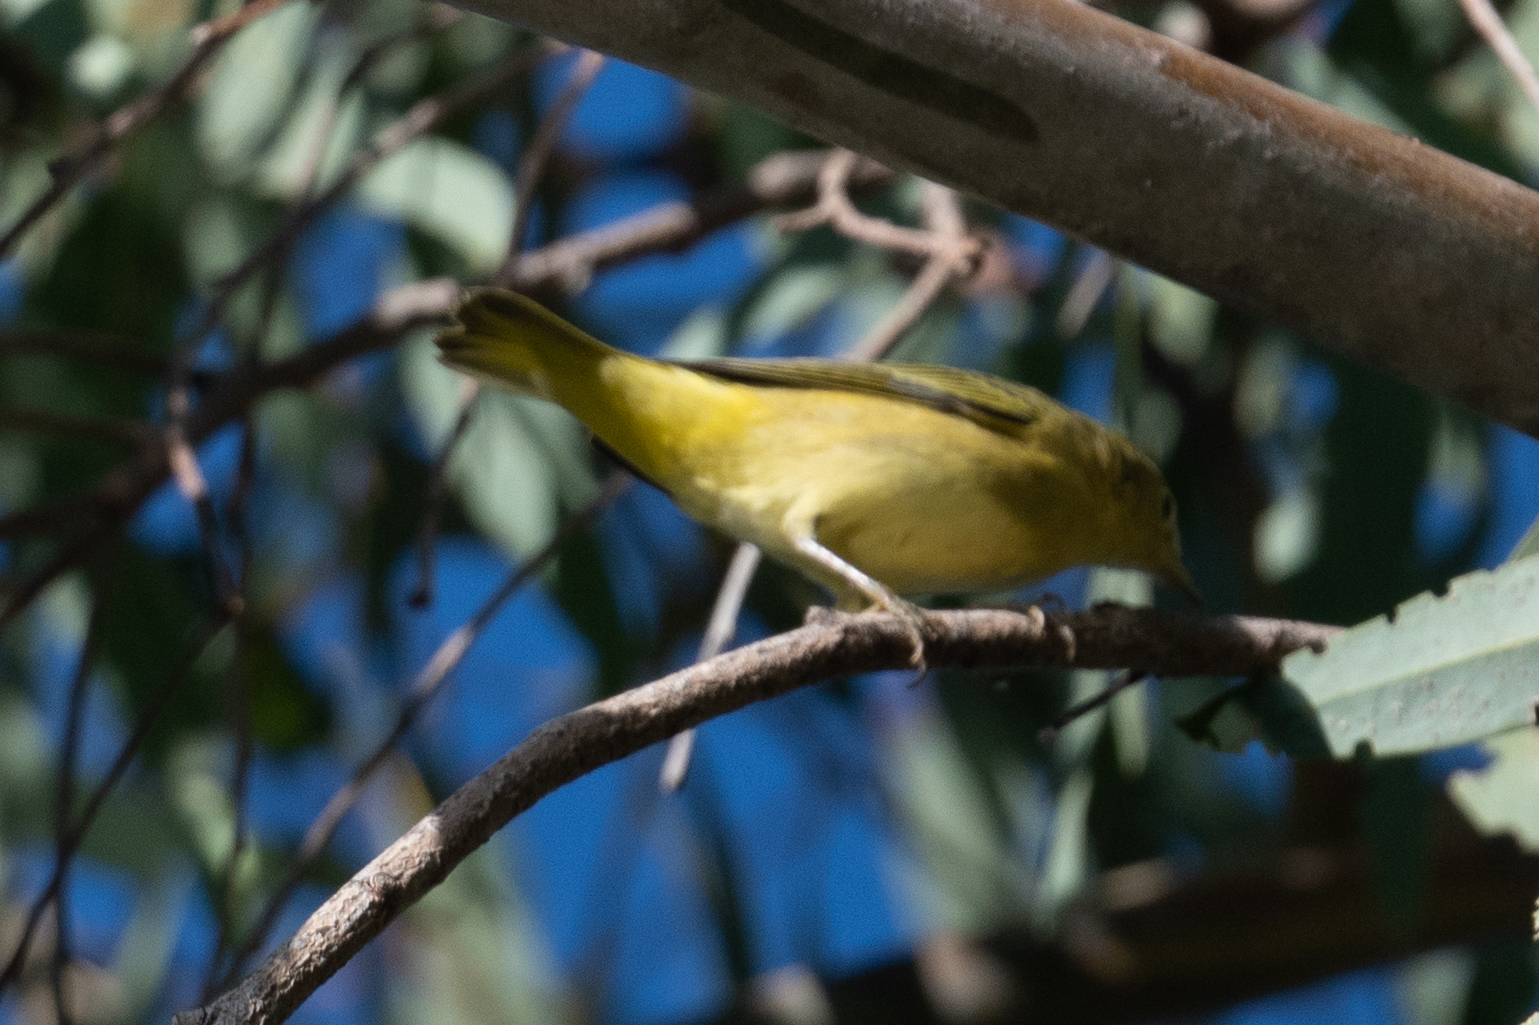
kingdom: Animalia
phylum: Chordata
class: Aves
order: Passeriformes
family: Parulidae
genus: Setophaga
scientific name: Setophaga petechia
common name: Yellow warbler
